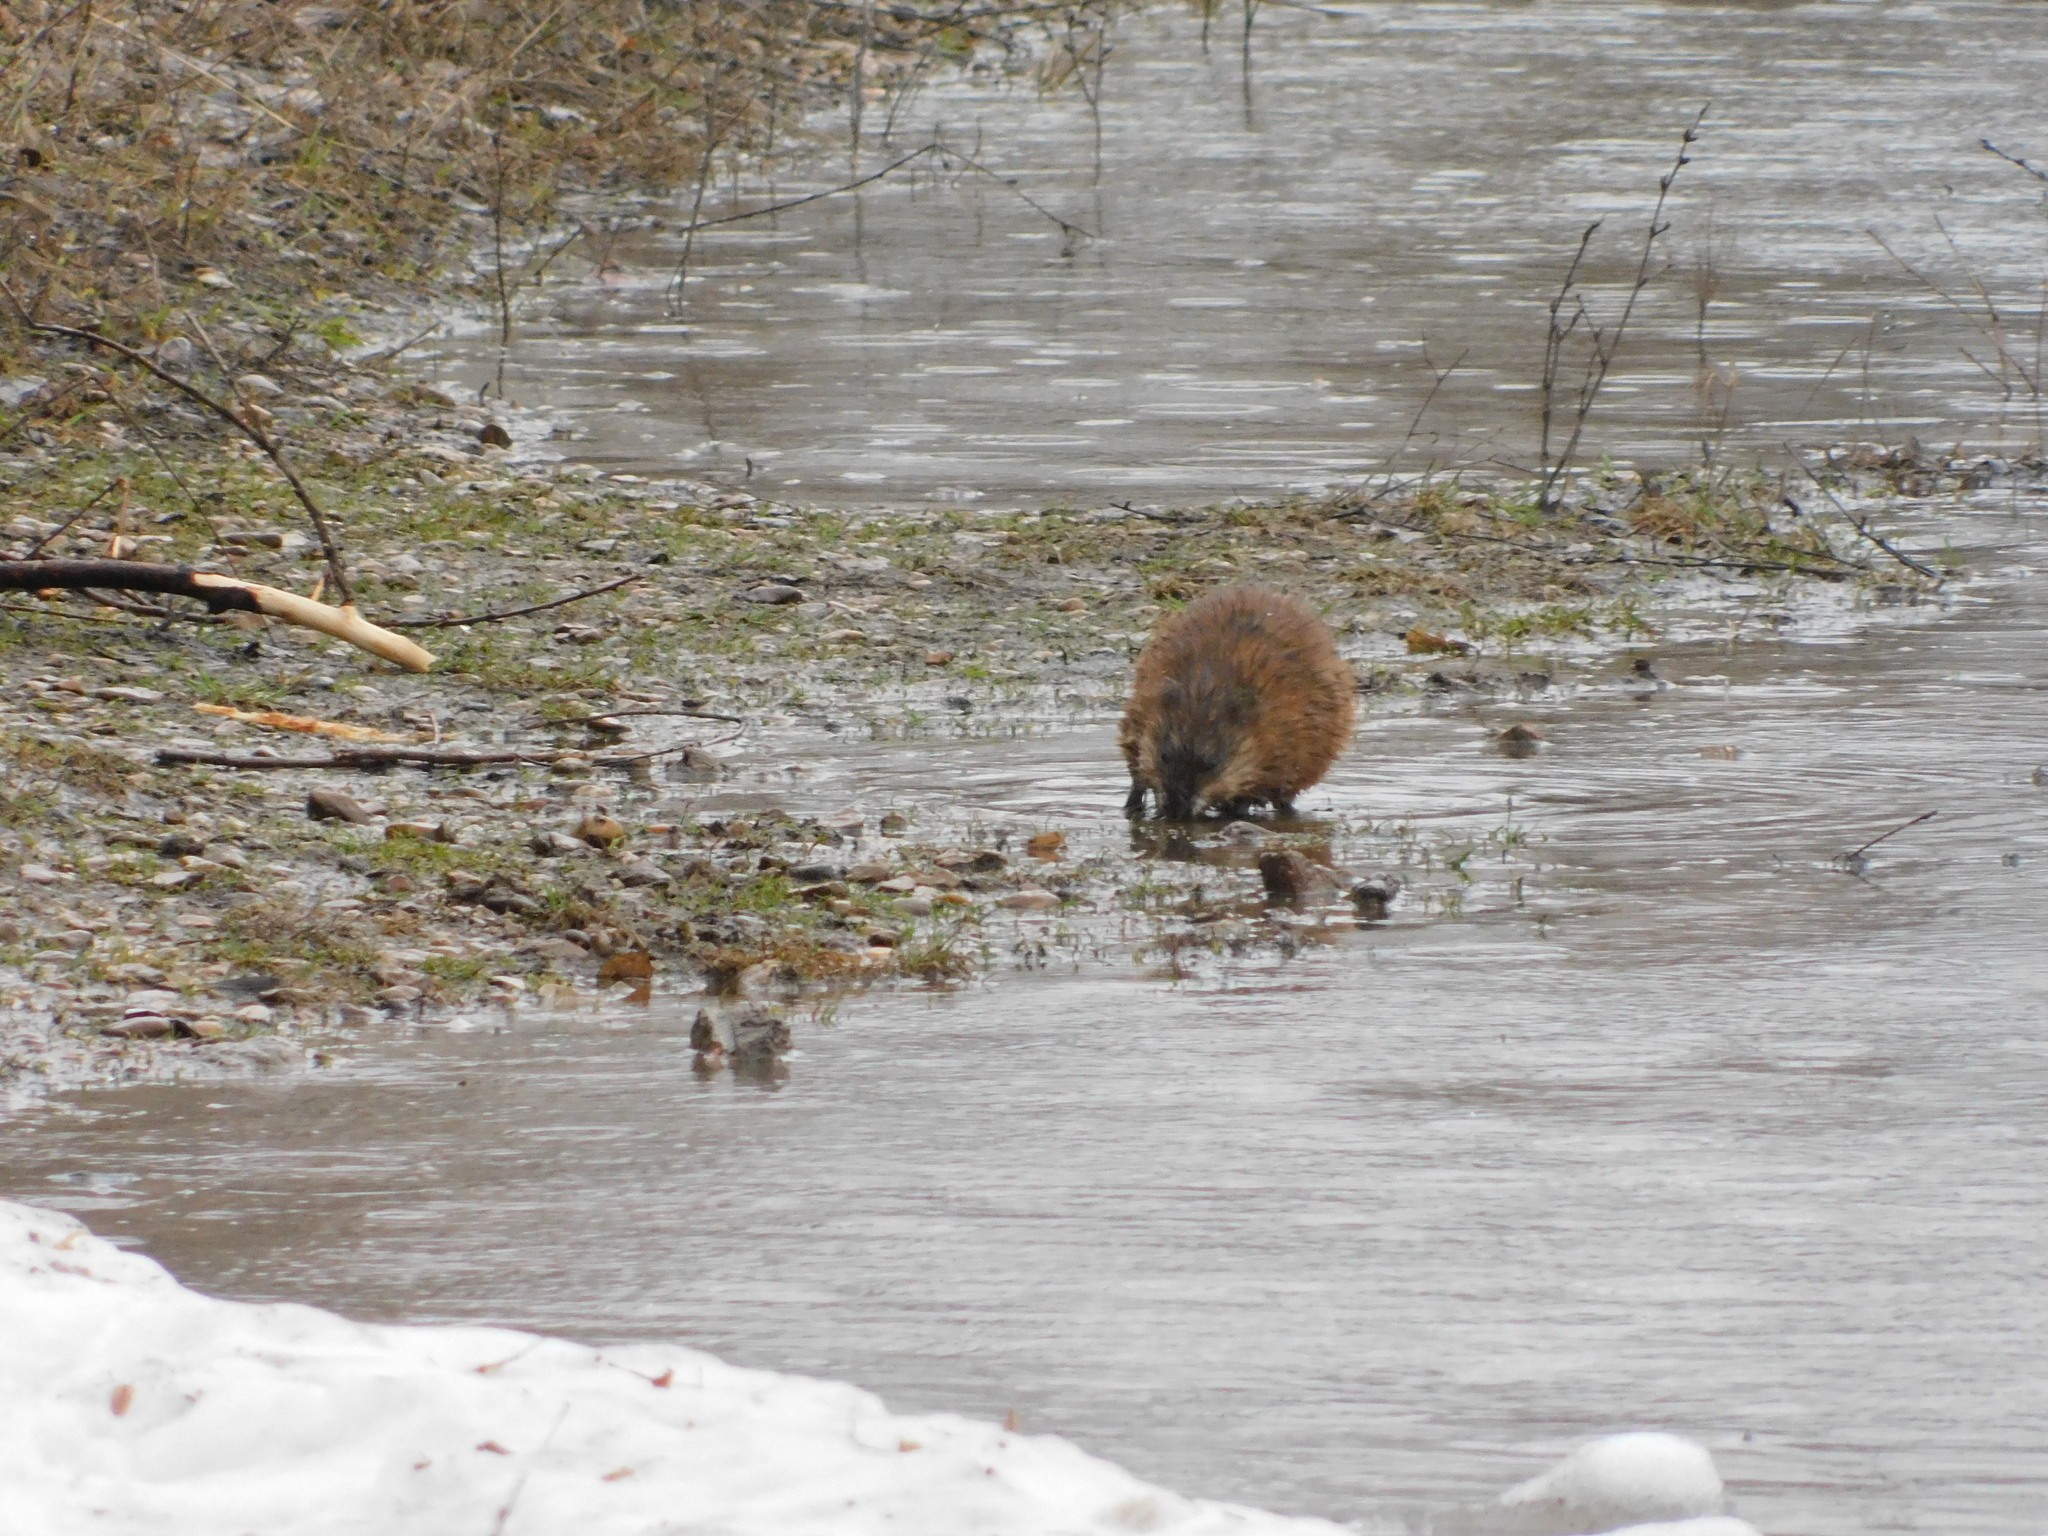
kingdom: Animalia
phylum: Chordata
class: Mammalia
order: Rodentia
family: Cricetidae
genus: Ondatra
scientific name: Ondatra zibethicus
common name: Muskrat
